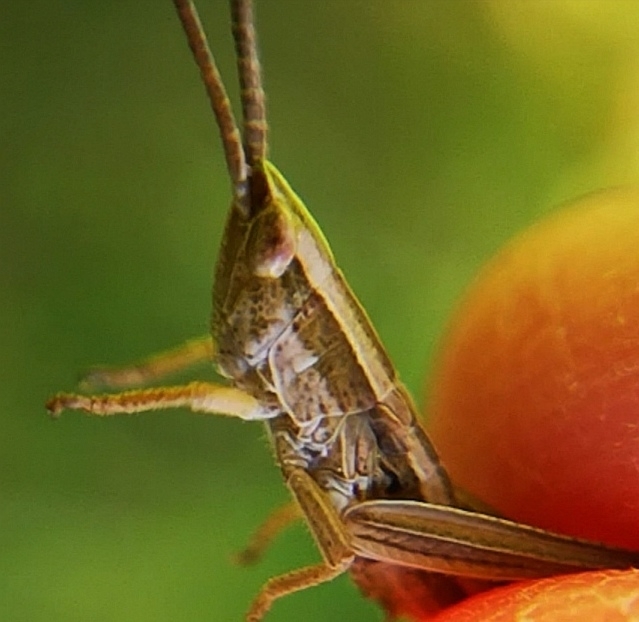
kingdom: Animalia
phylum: Arthropoda
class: Insecta
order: Orthoptera
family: Acrididae
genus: Euthystira
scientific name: Euthystira brachyptera
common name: Small gold grasshopper
